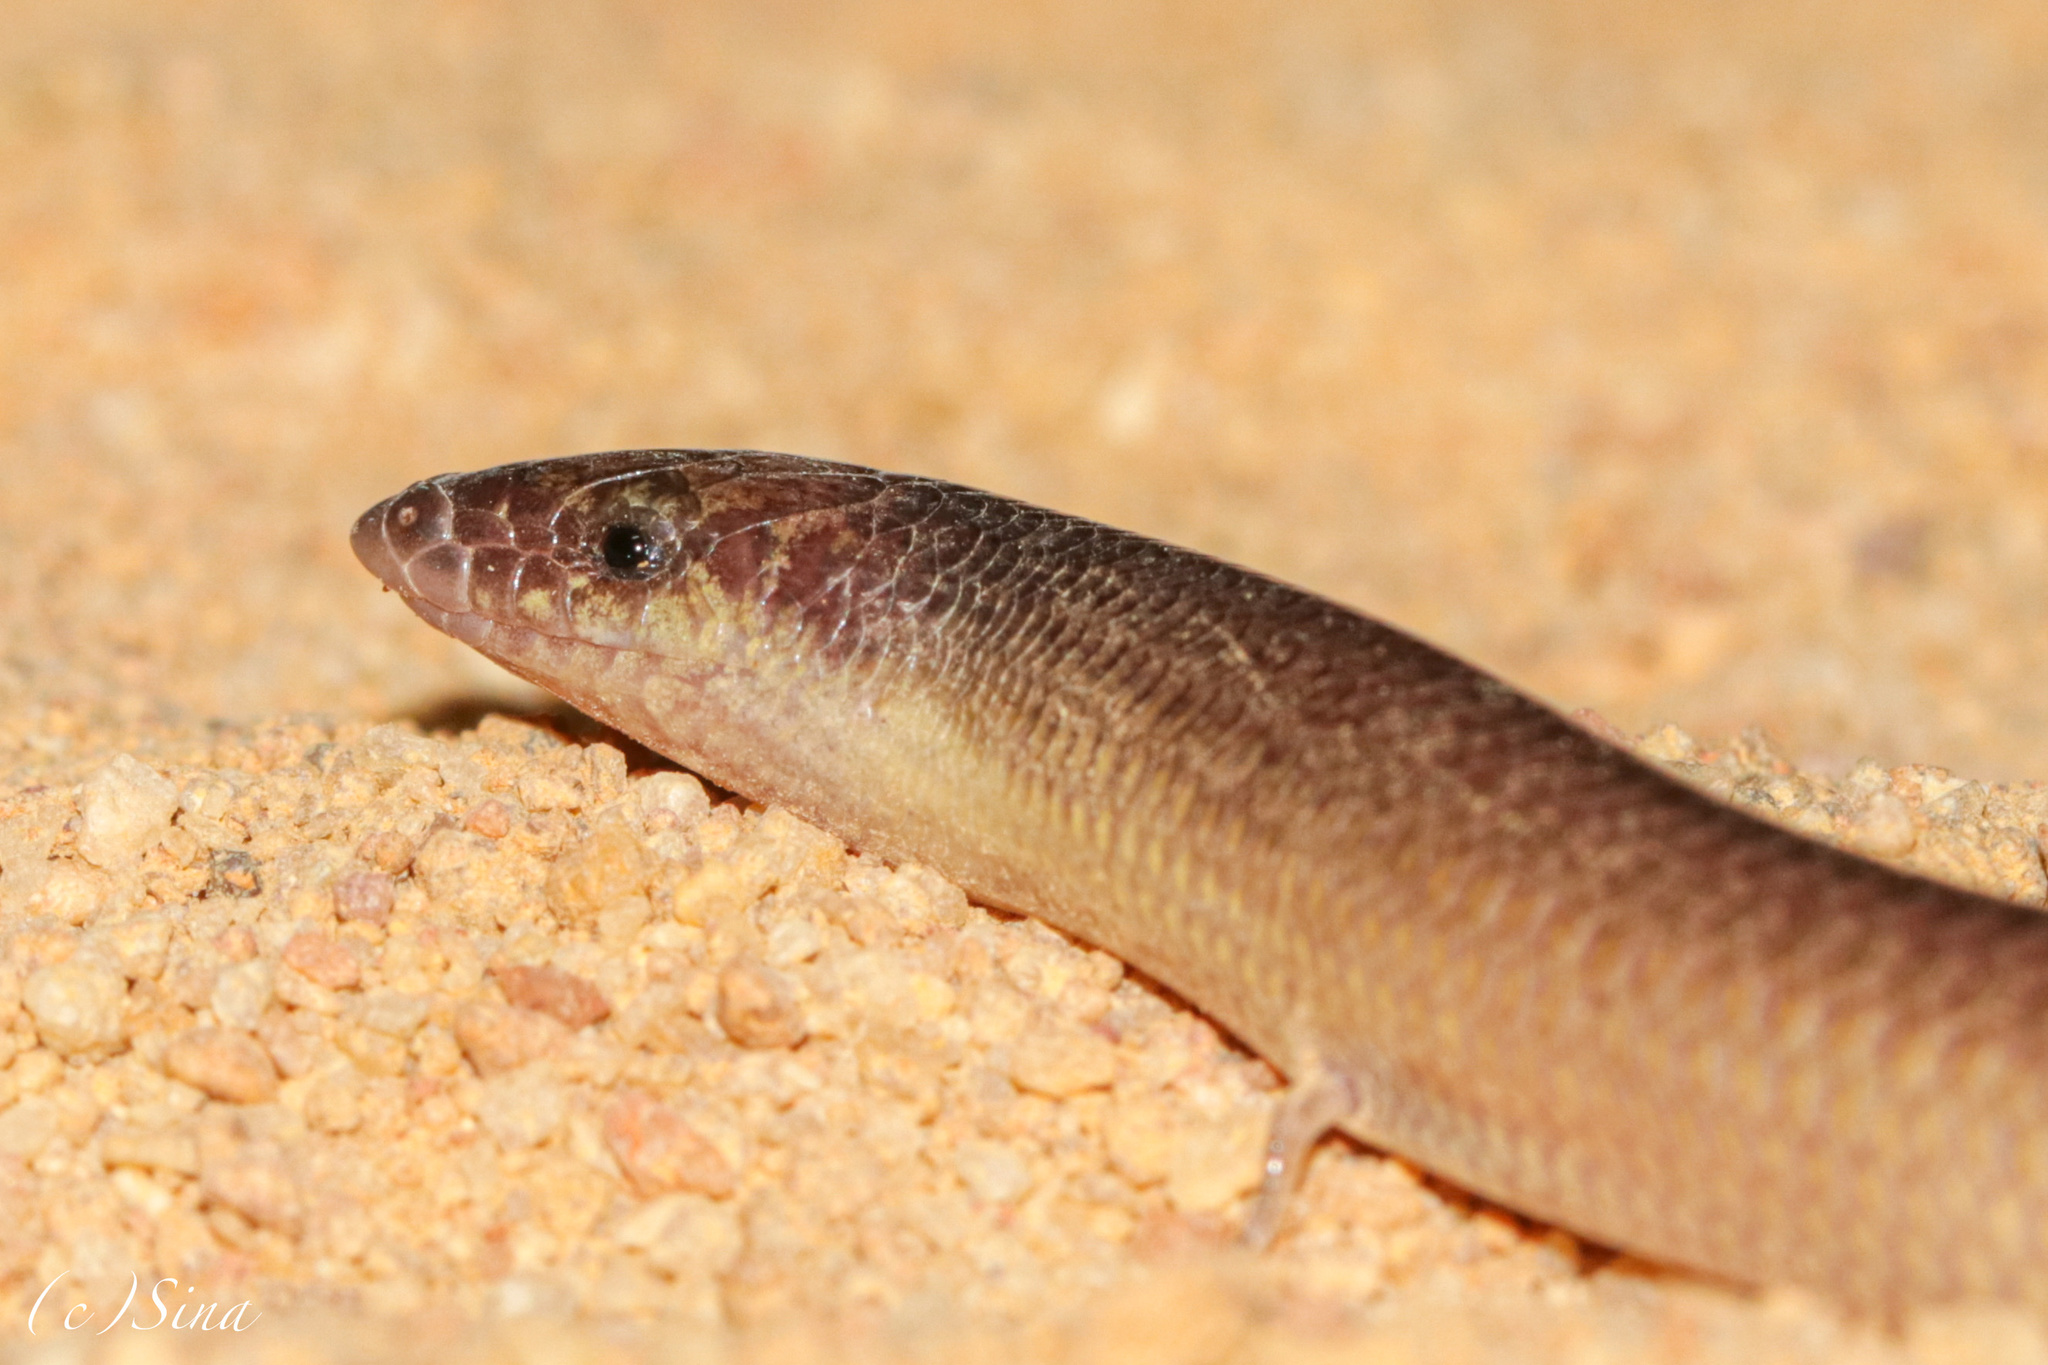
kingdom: Animalia
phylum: Chordata
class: Squamata
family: Scincidae
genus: Lerista
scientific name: Lerista macropisthopus
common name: Unpatterned robust slider
